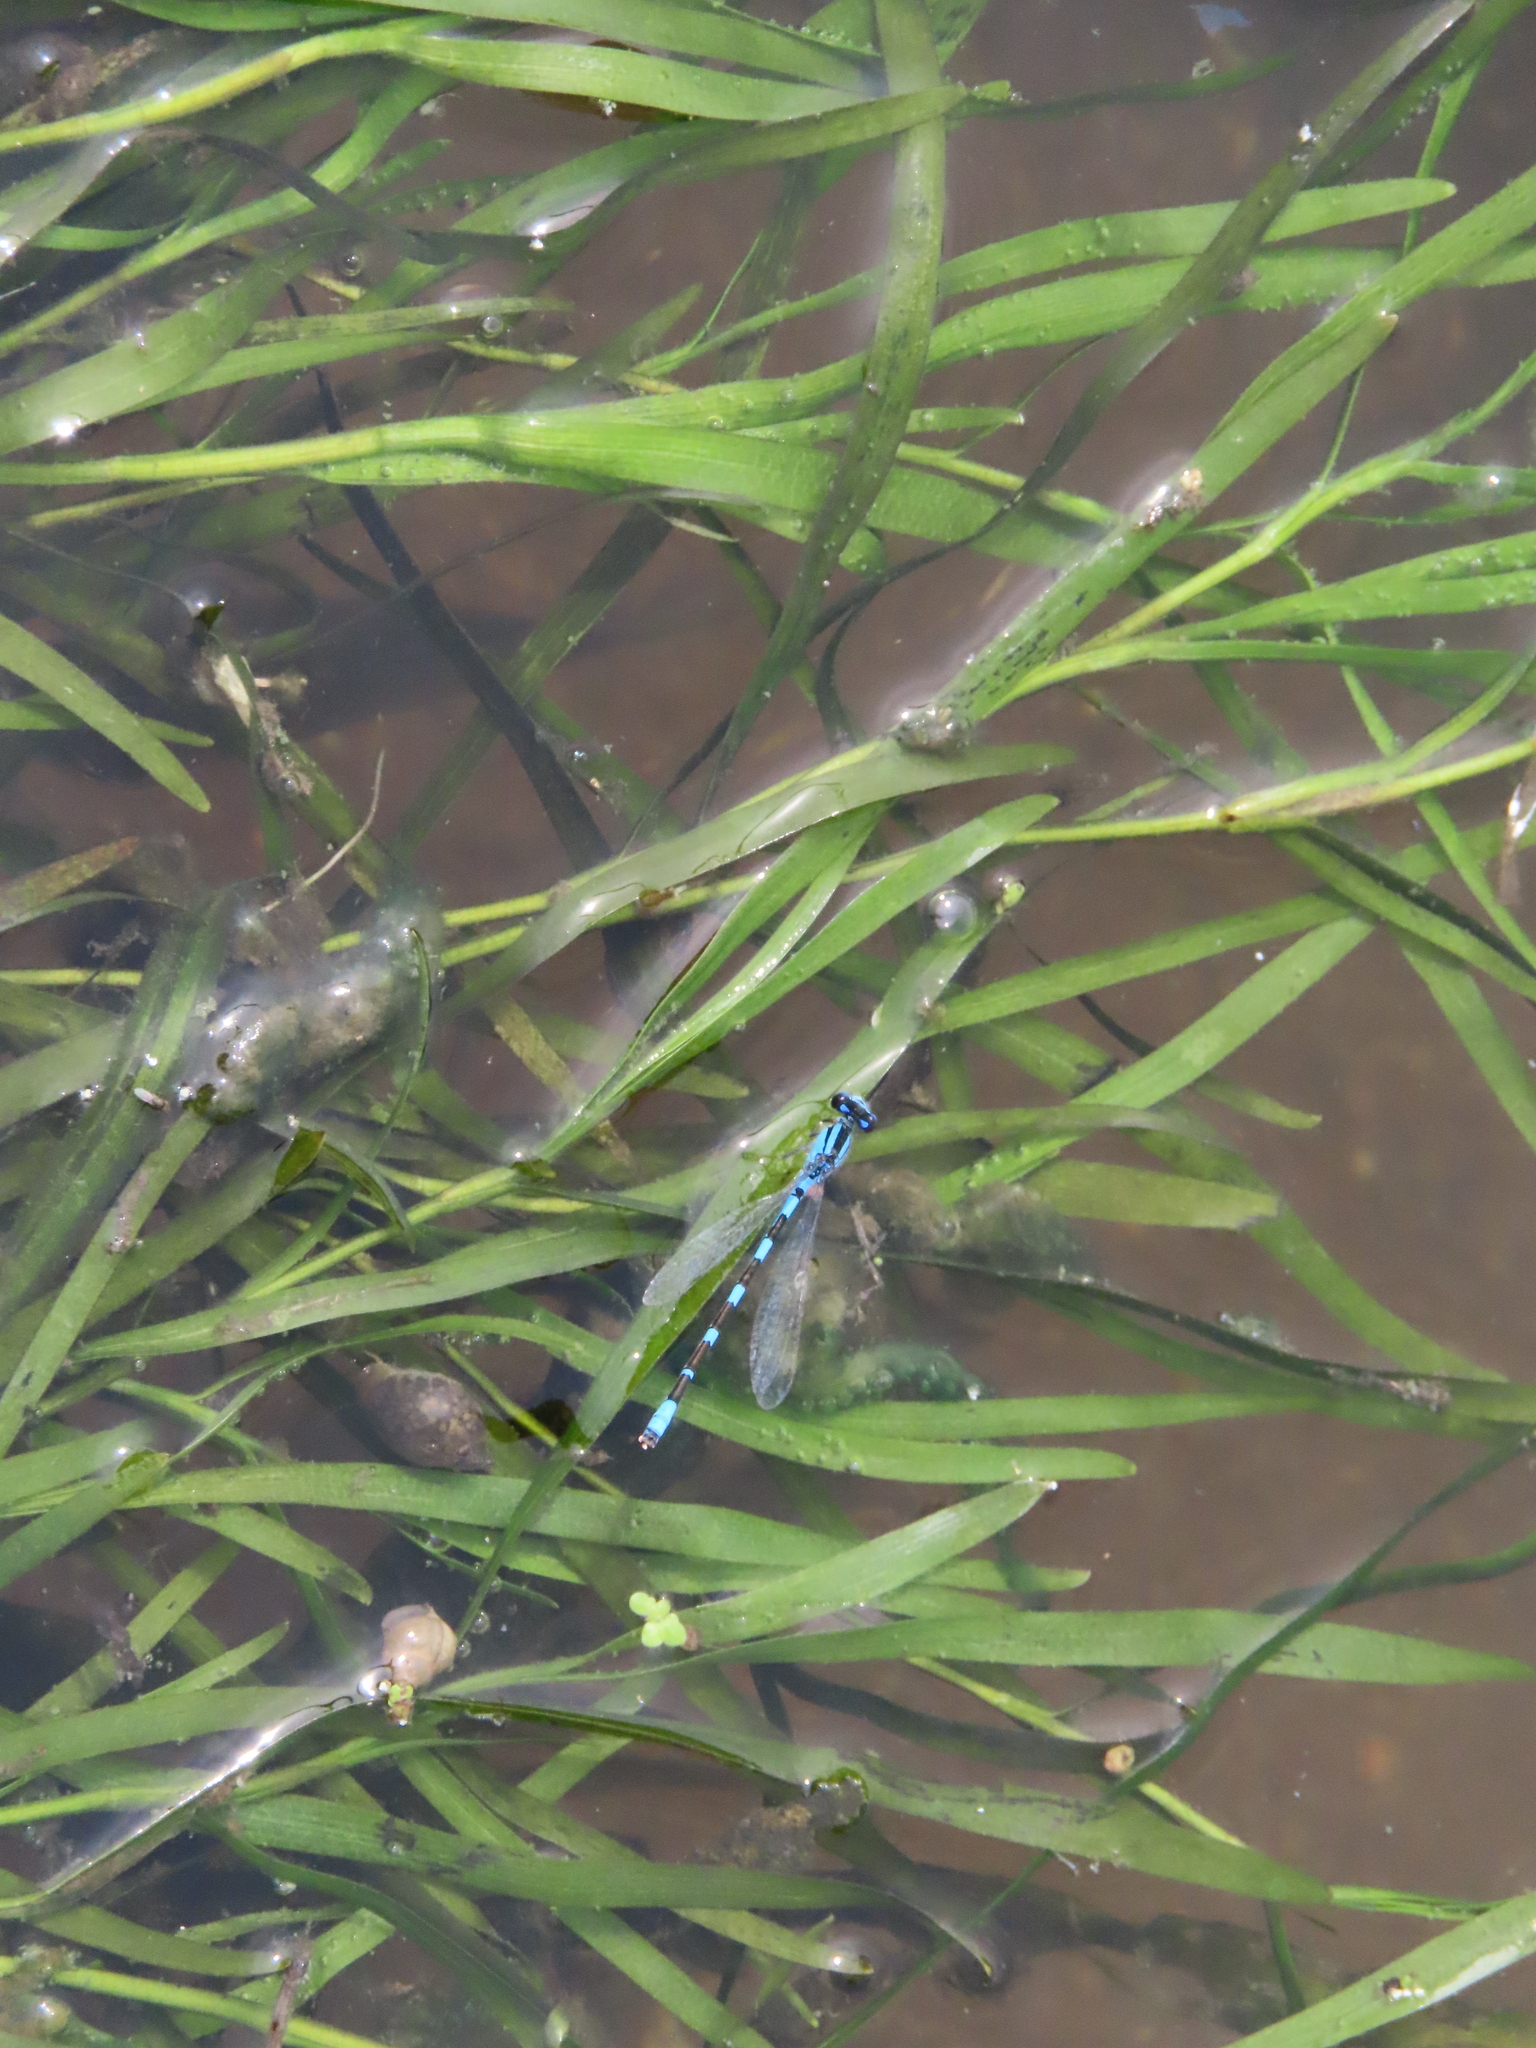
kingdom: Plantae
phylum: Tracheophyta
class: Liliopsida
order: Commelinales
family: Pontederiaceae
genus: Heteranthera
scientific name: Heteranthera dubia
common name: Grass-leaved mud plantain
